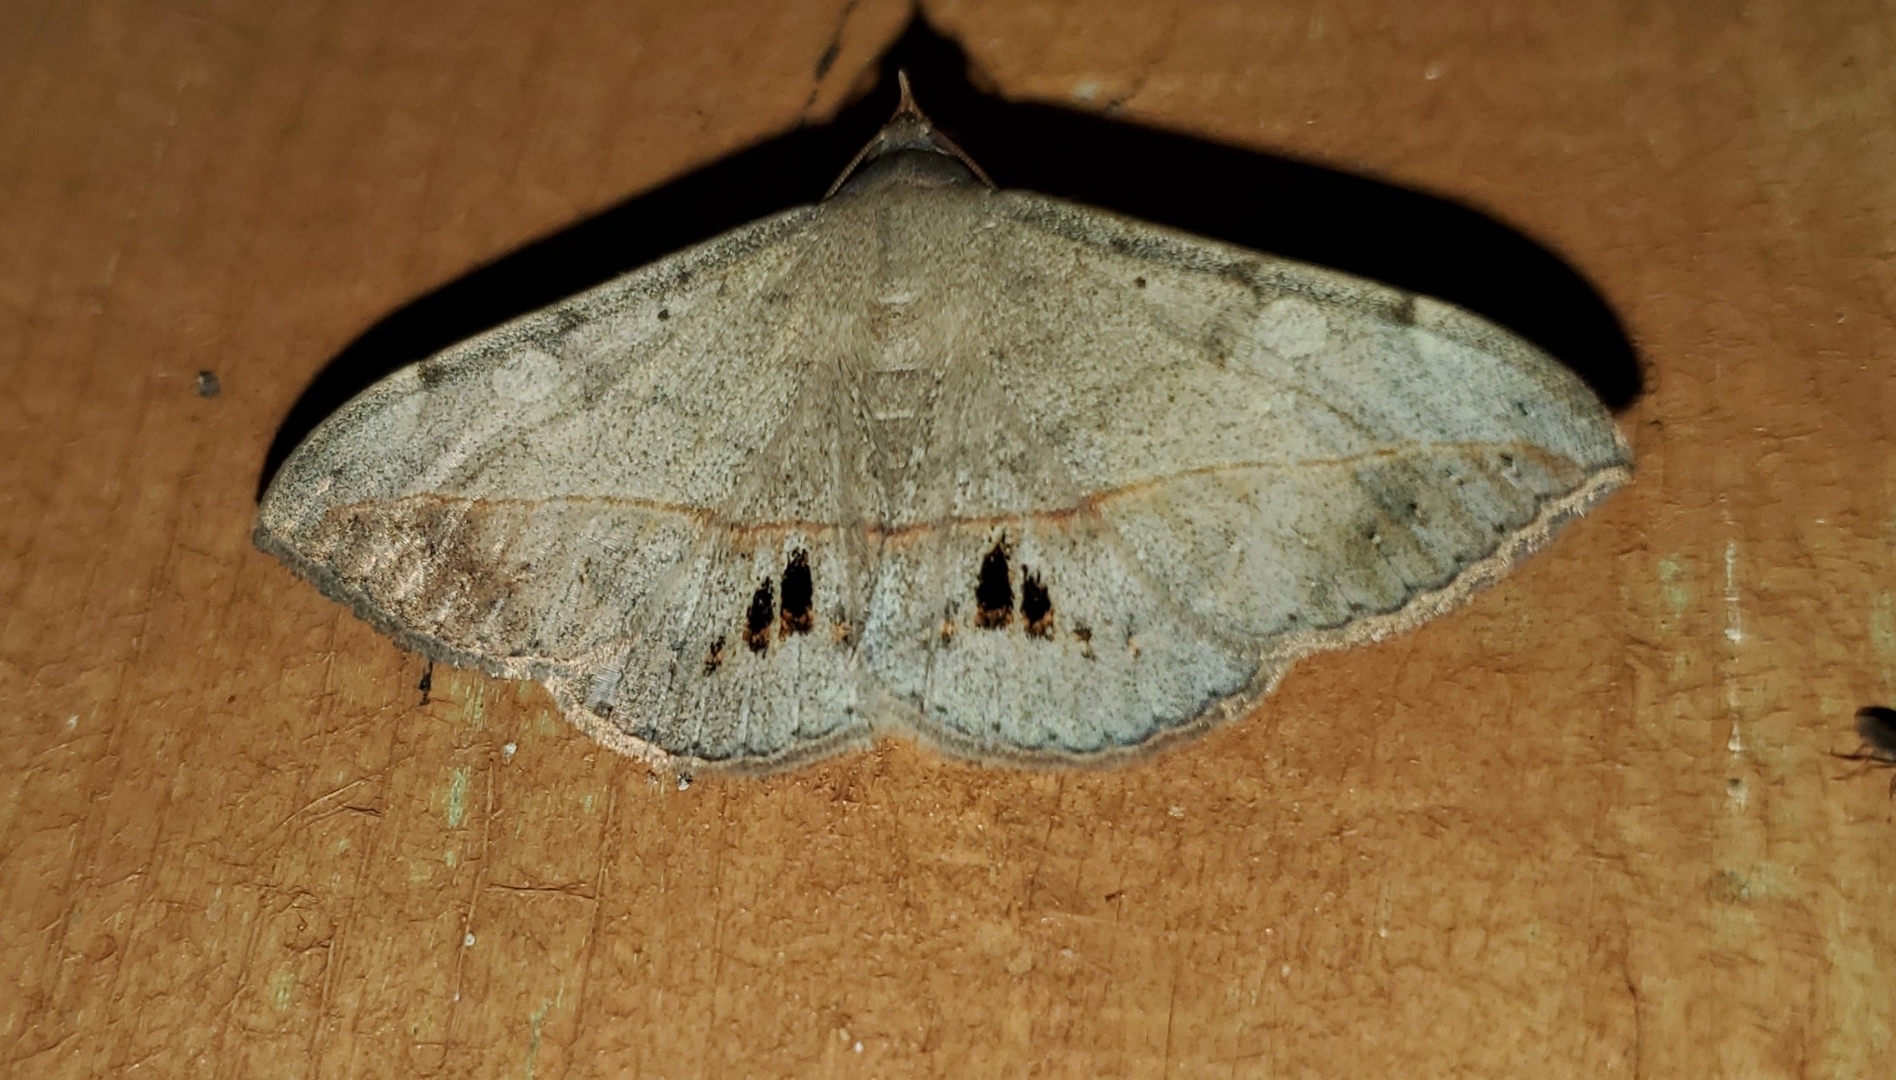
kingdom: Animalia
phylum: Arthropoda
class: Insecta
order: Lepidoptera
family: Erebidae
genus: Anticarsia
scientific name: Anticarsia gemmatalis
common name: Cutworm moth
